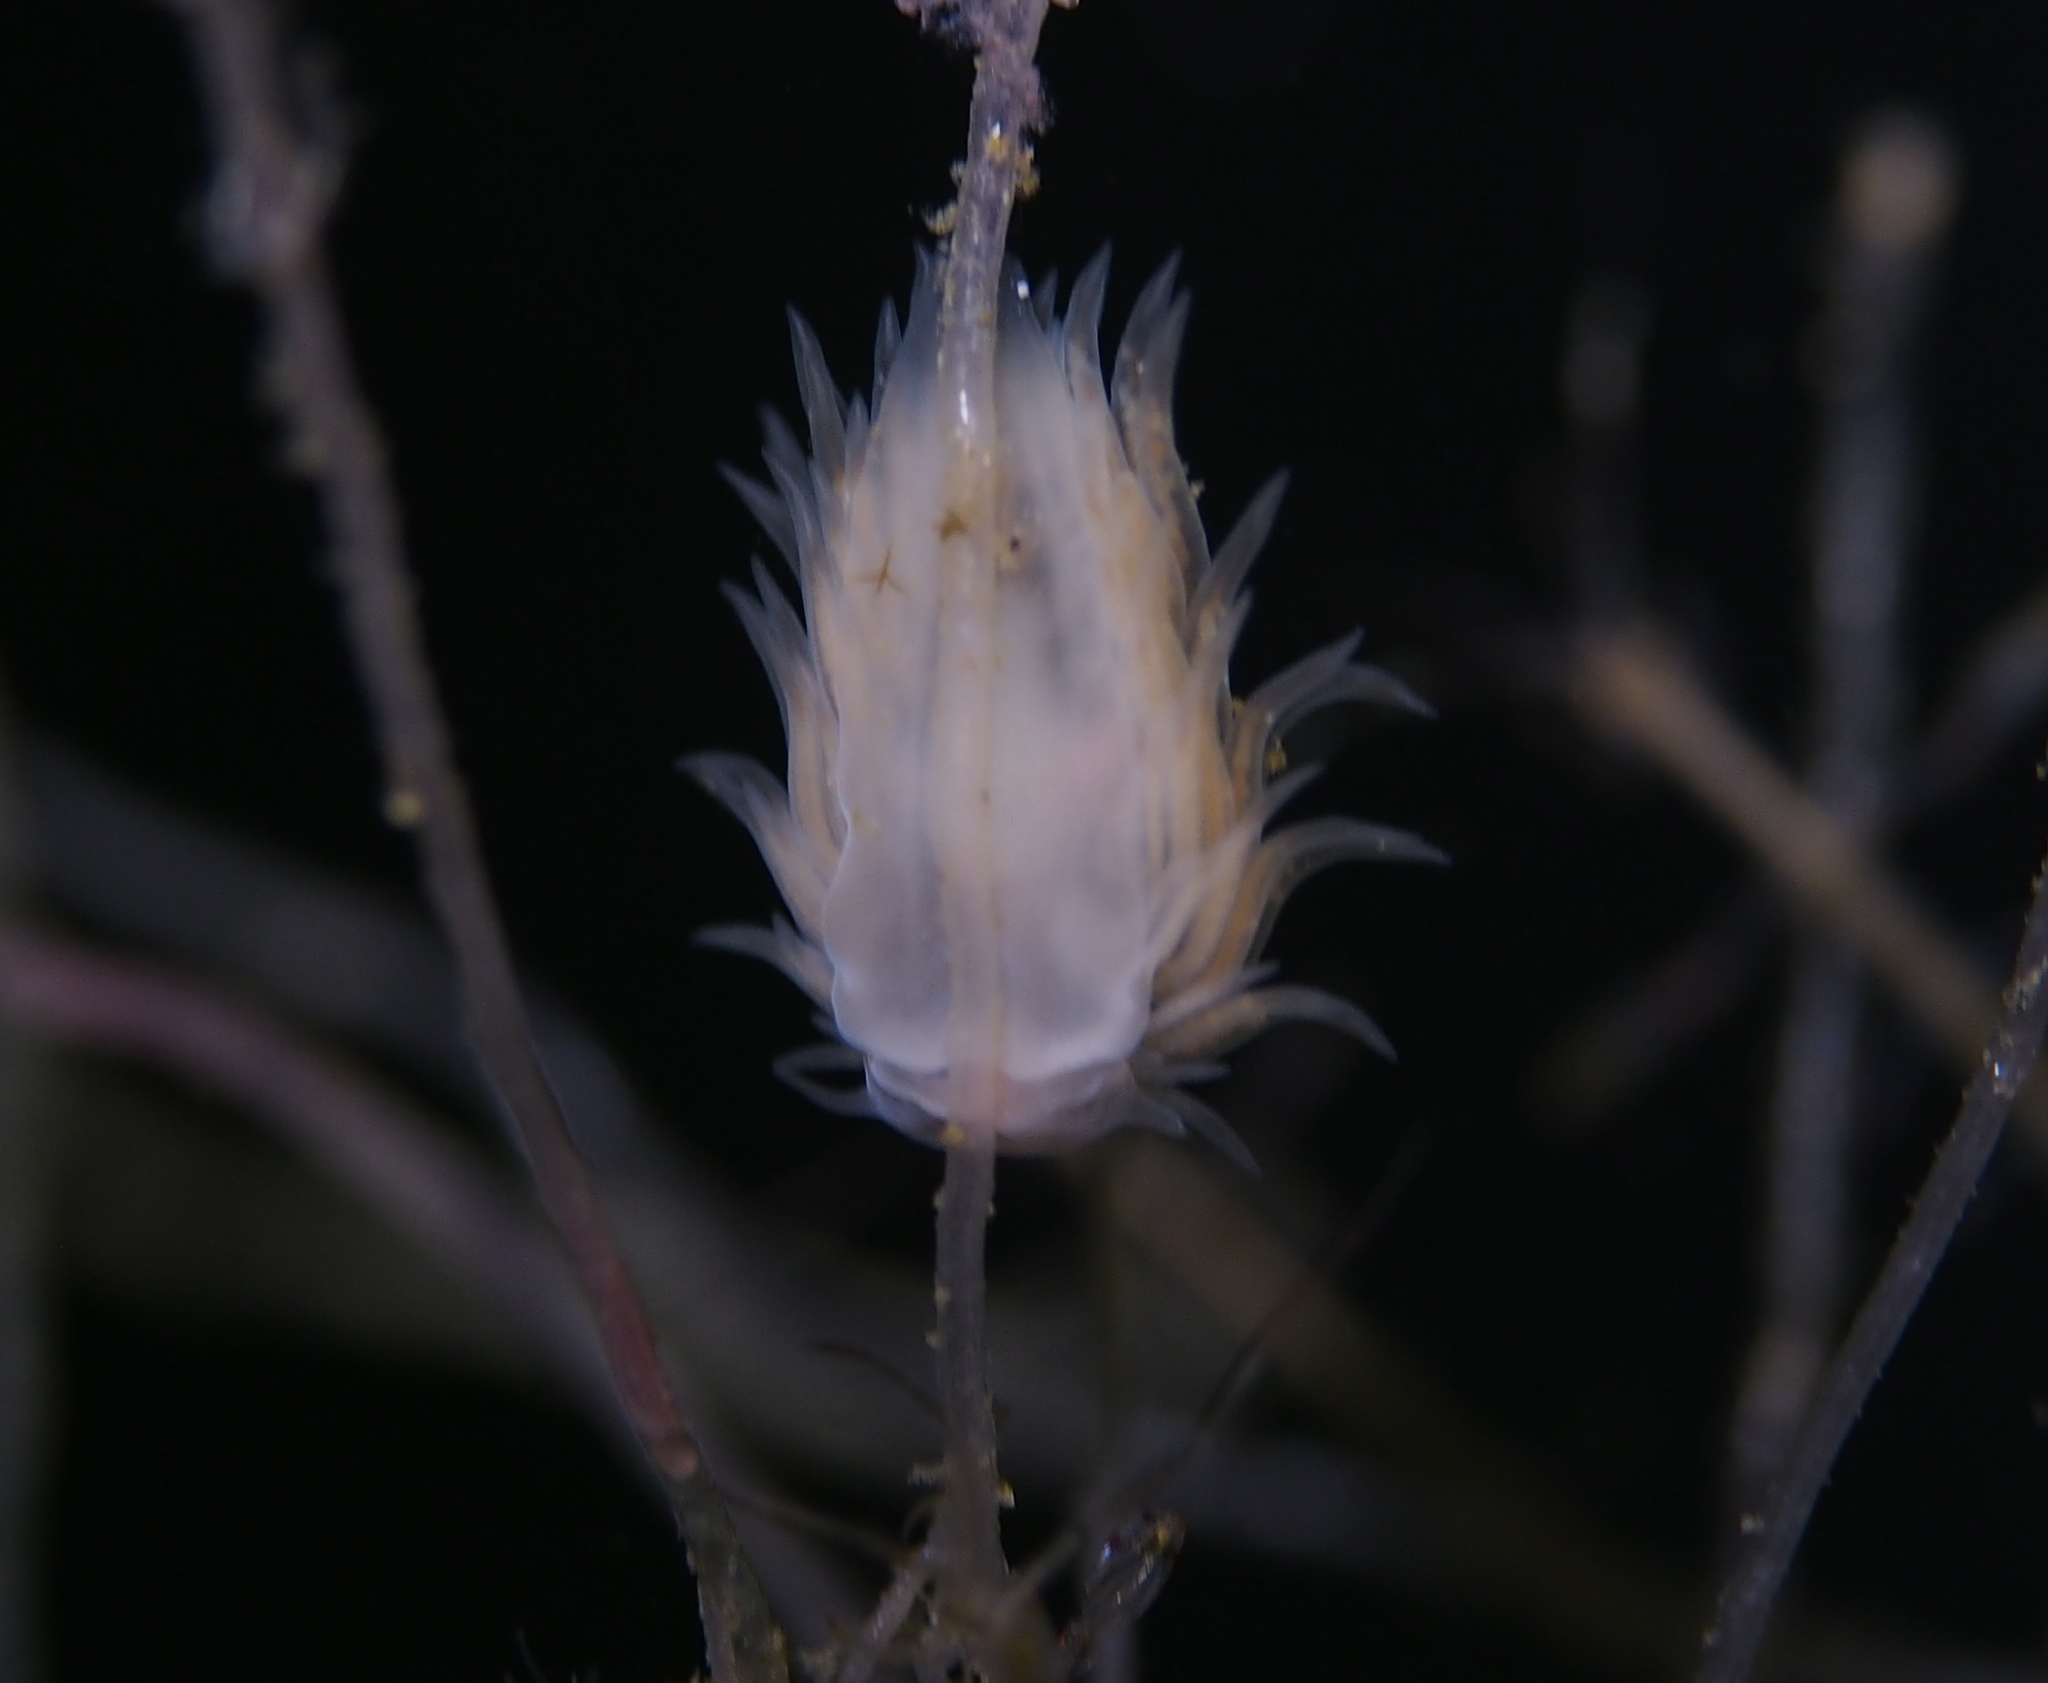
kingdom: Animalia
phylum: Mollusca
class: Gastropoda
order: Nudibranchia
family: Cumanotidae
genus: Cumanotus
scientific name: Cumanotus beaumonti
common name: Polyp aeolis
